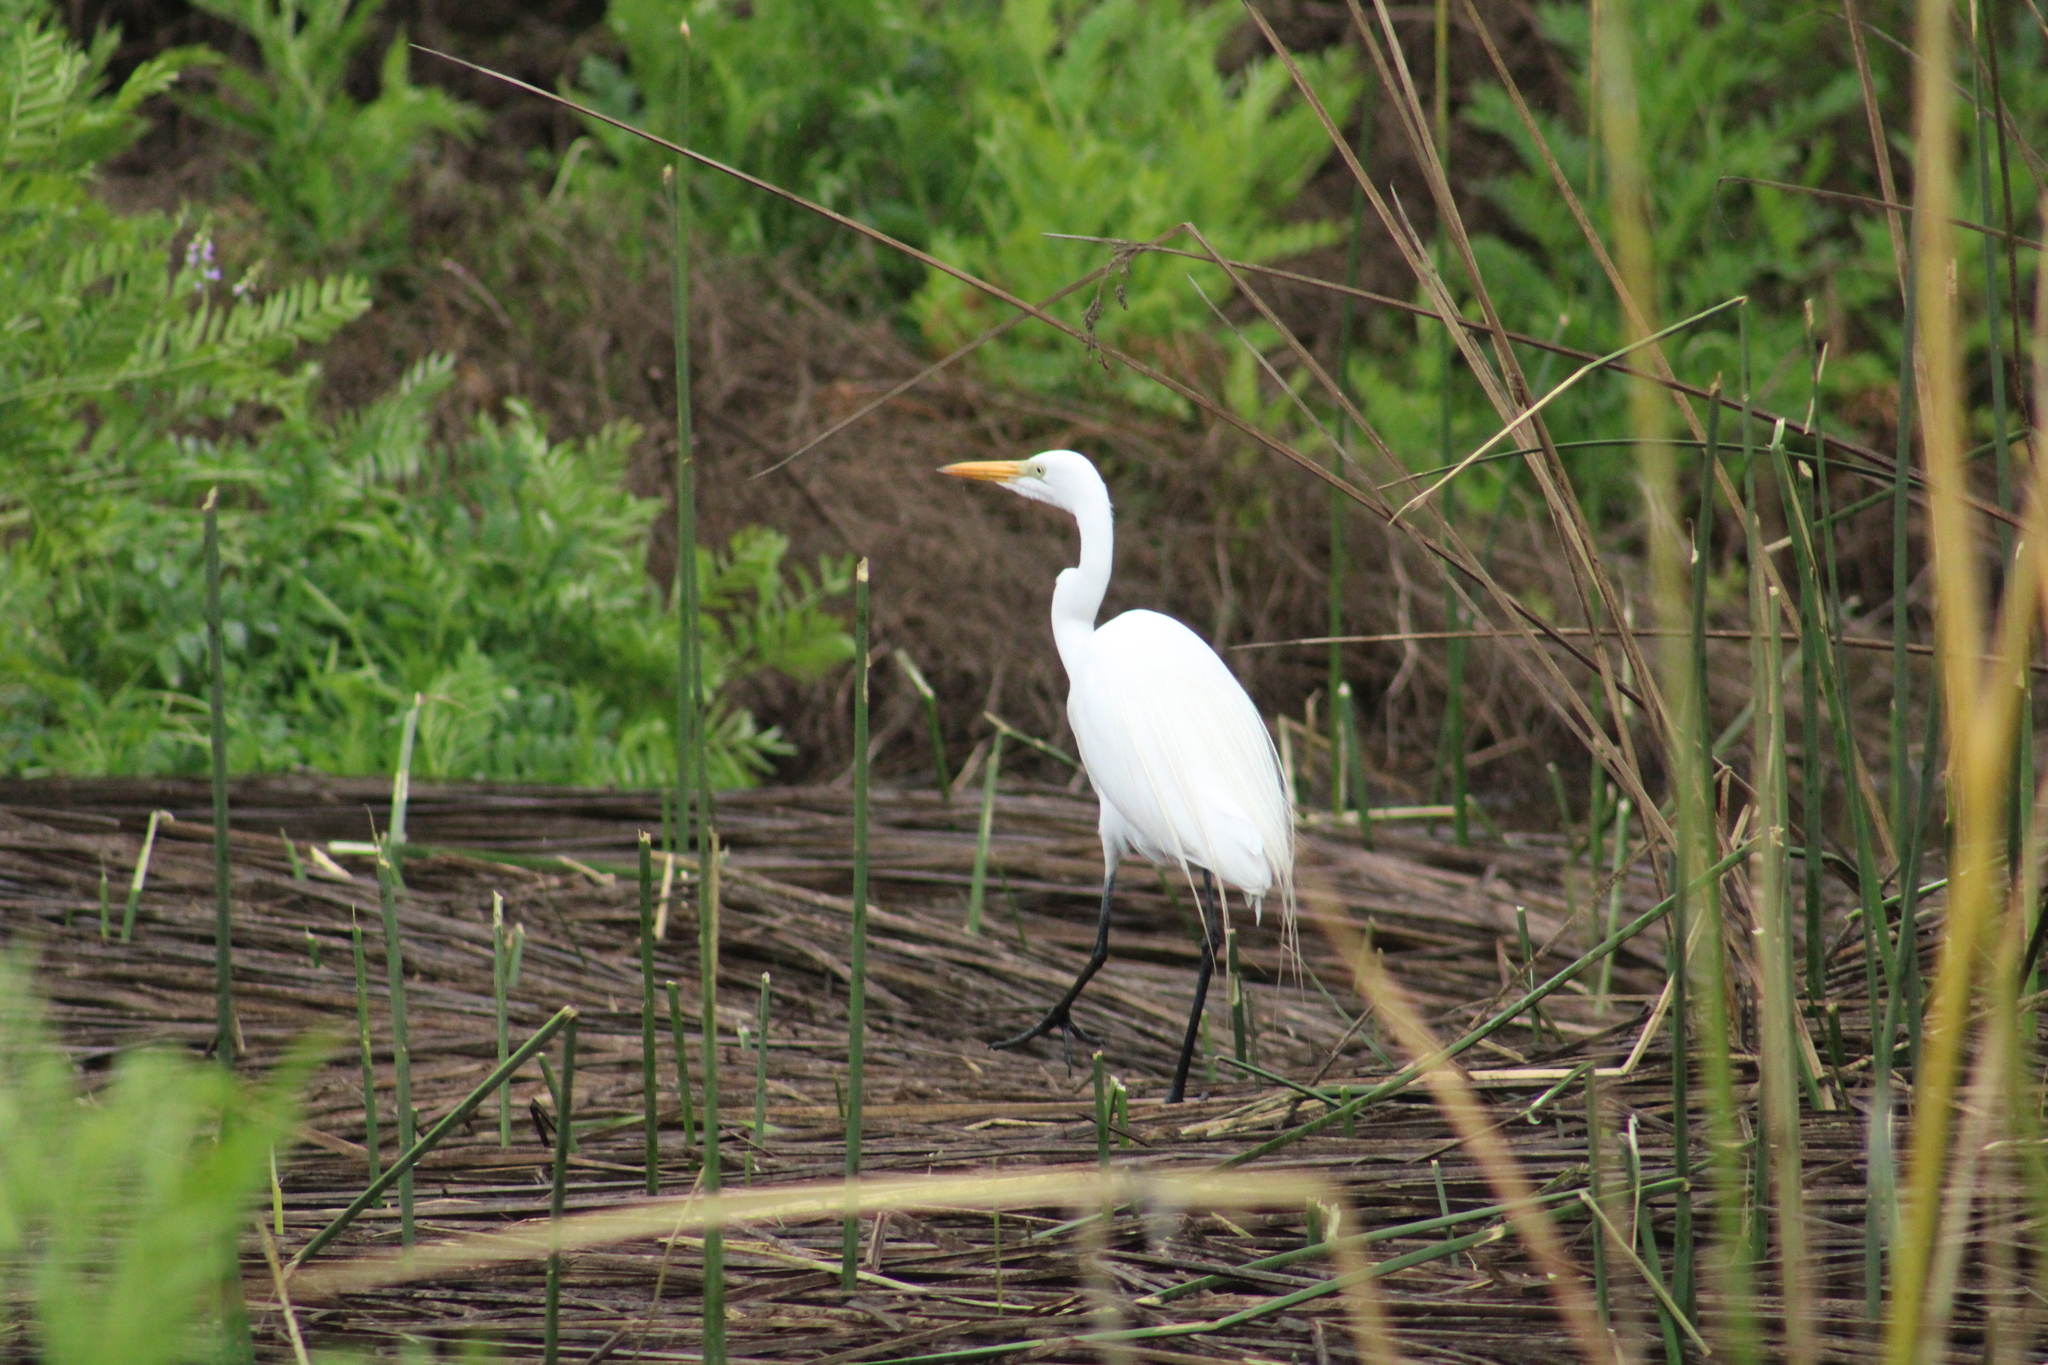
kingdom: Animalia
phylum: Chordata
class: Aves
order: Pelecaniformes
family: Ardeidae
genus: Ardea
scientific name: Ardea alba
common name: Great egret
